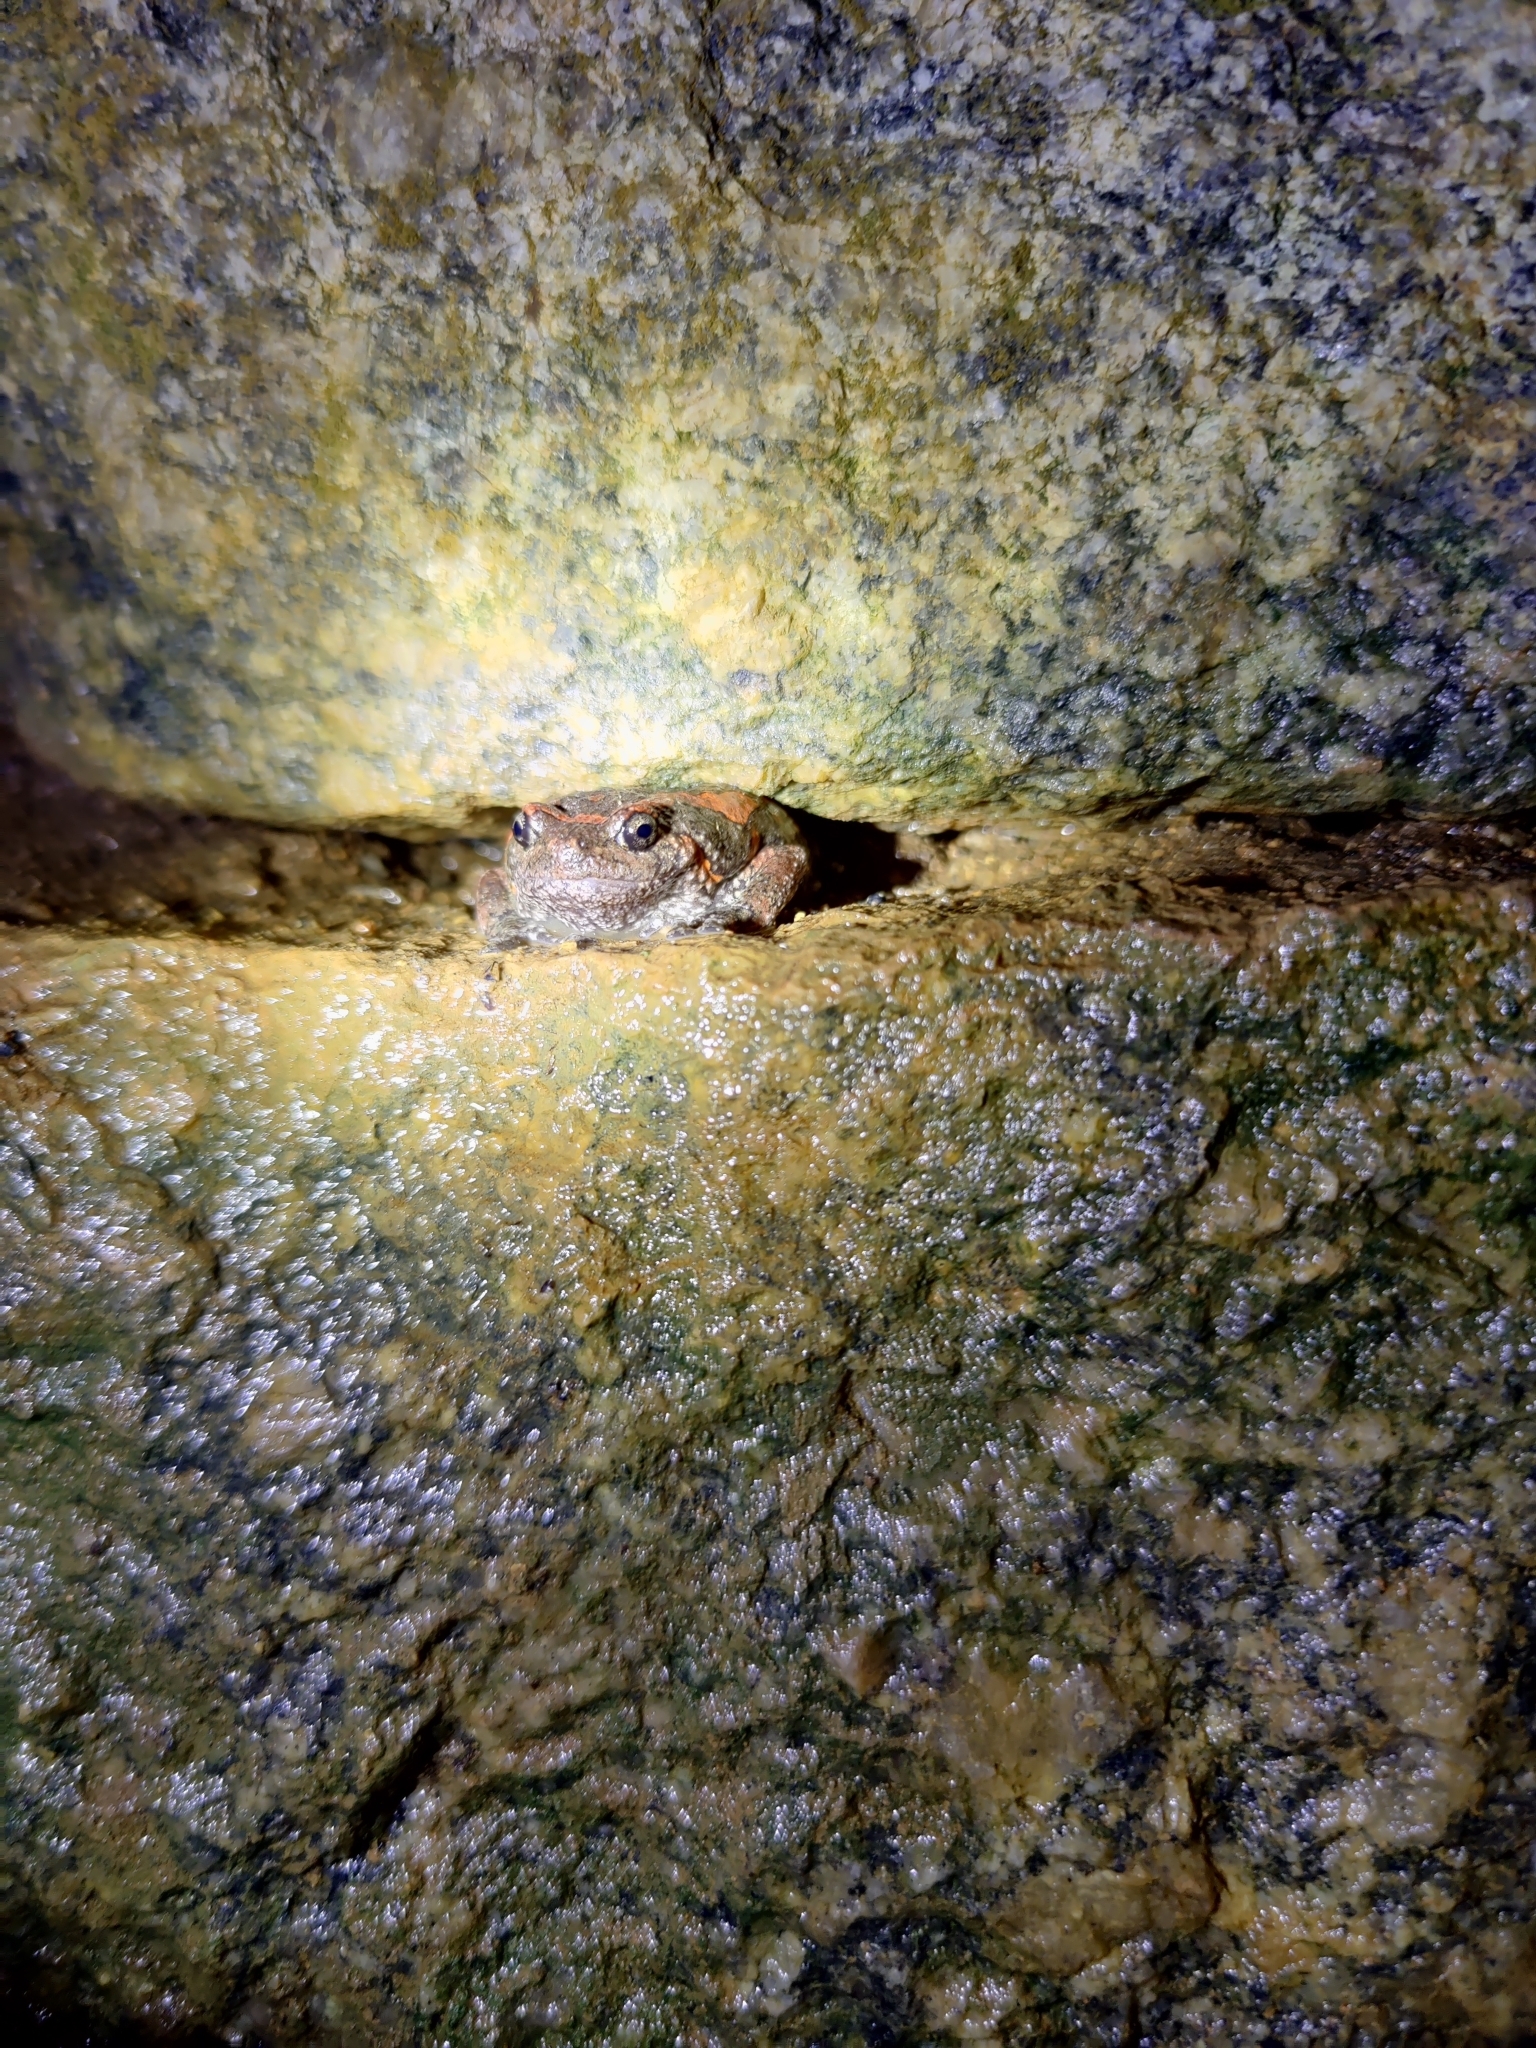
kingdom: Animalia
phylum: Chordata
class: Amphibia
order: Anura
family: Microhylidae
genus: Uperodon
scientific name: Uperodon taprobanicus
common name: Ceylon kaloula
